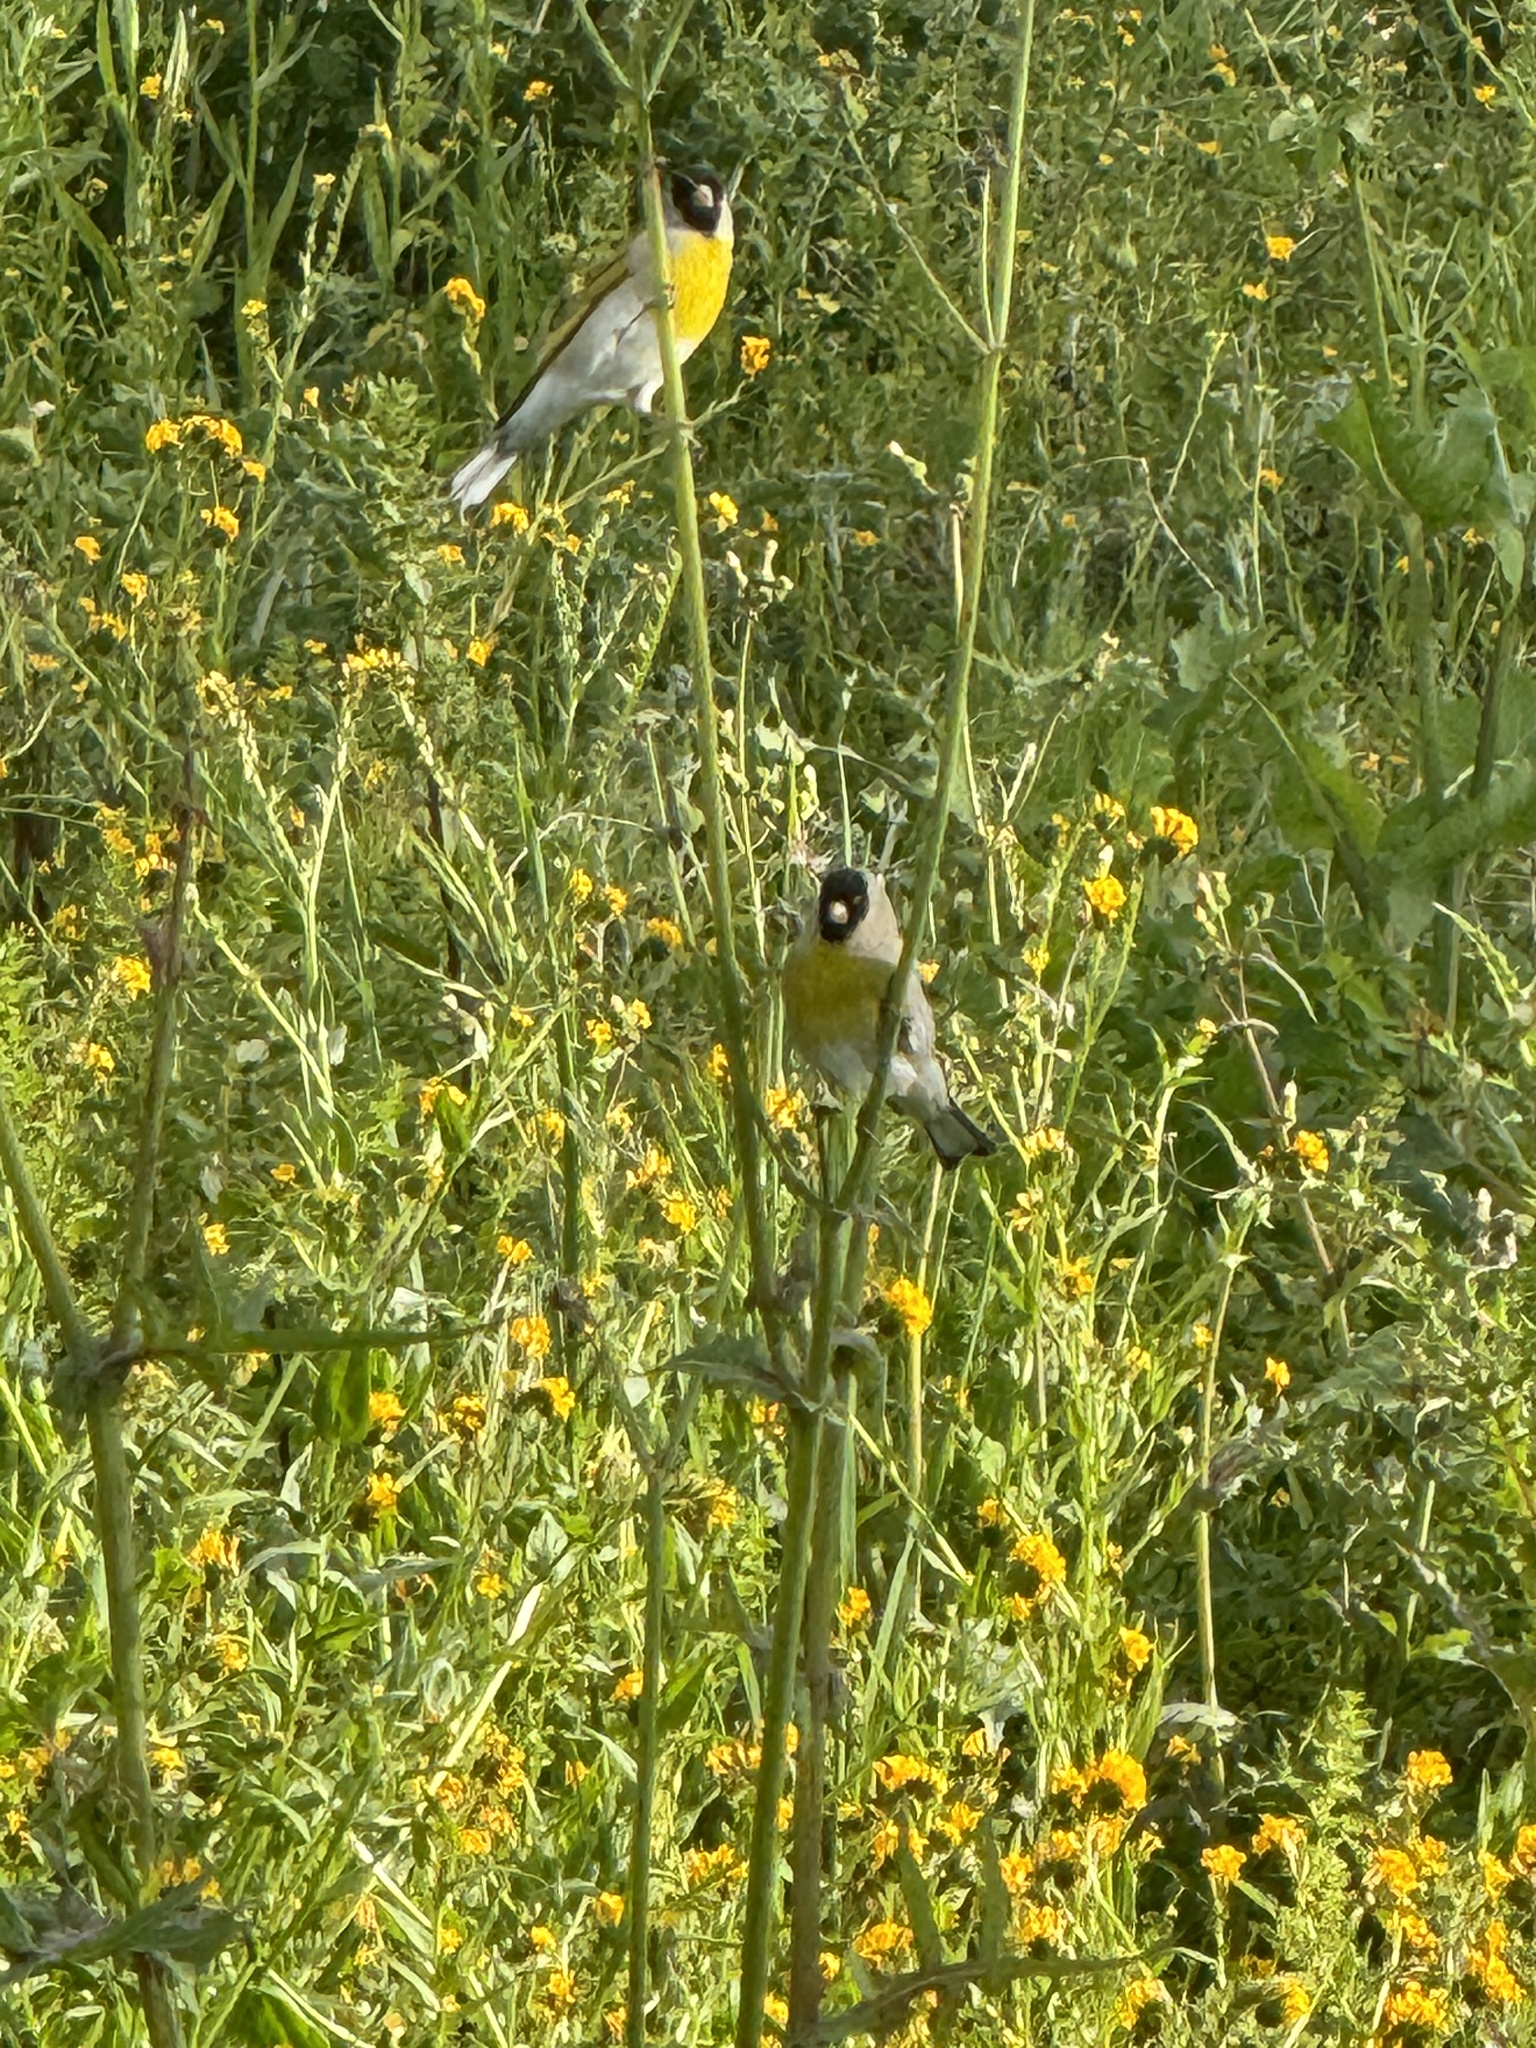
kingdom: Animalia
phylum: Chordata
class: Aves
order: Passeriformes
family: Fringillidae
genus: Spinus
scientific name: Spinus lawrencei
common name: Lawrence's goldfinch
